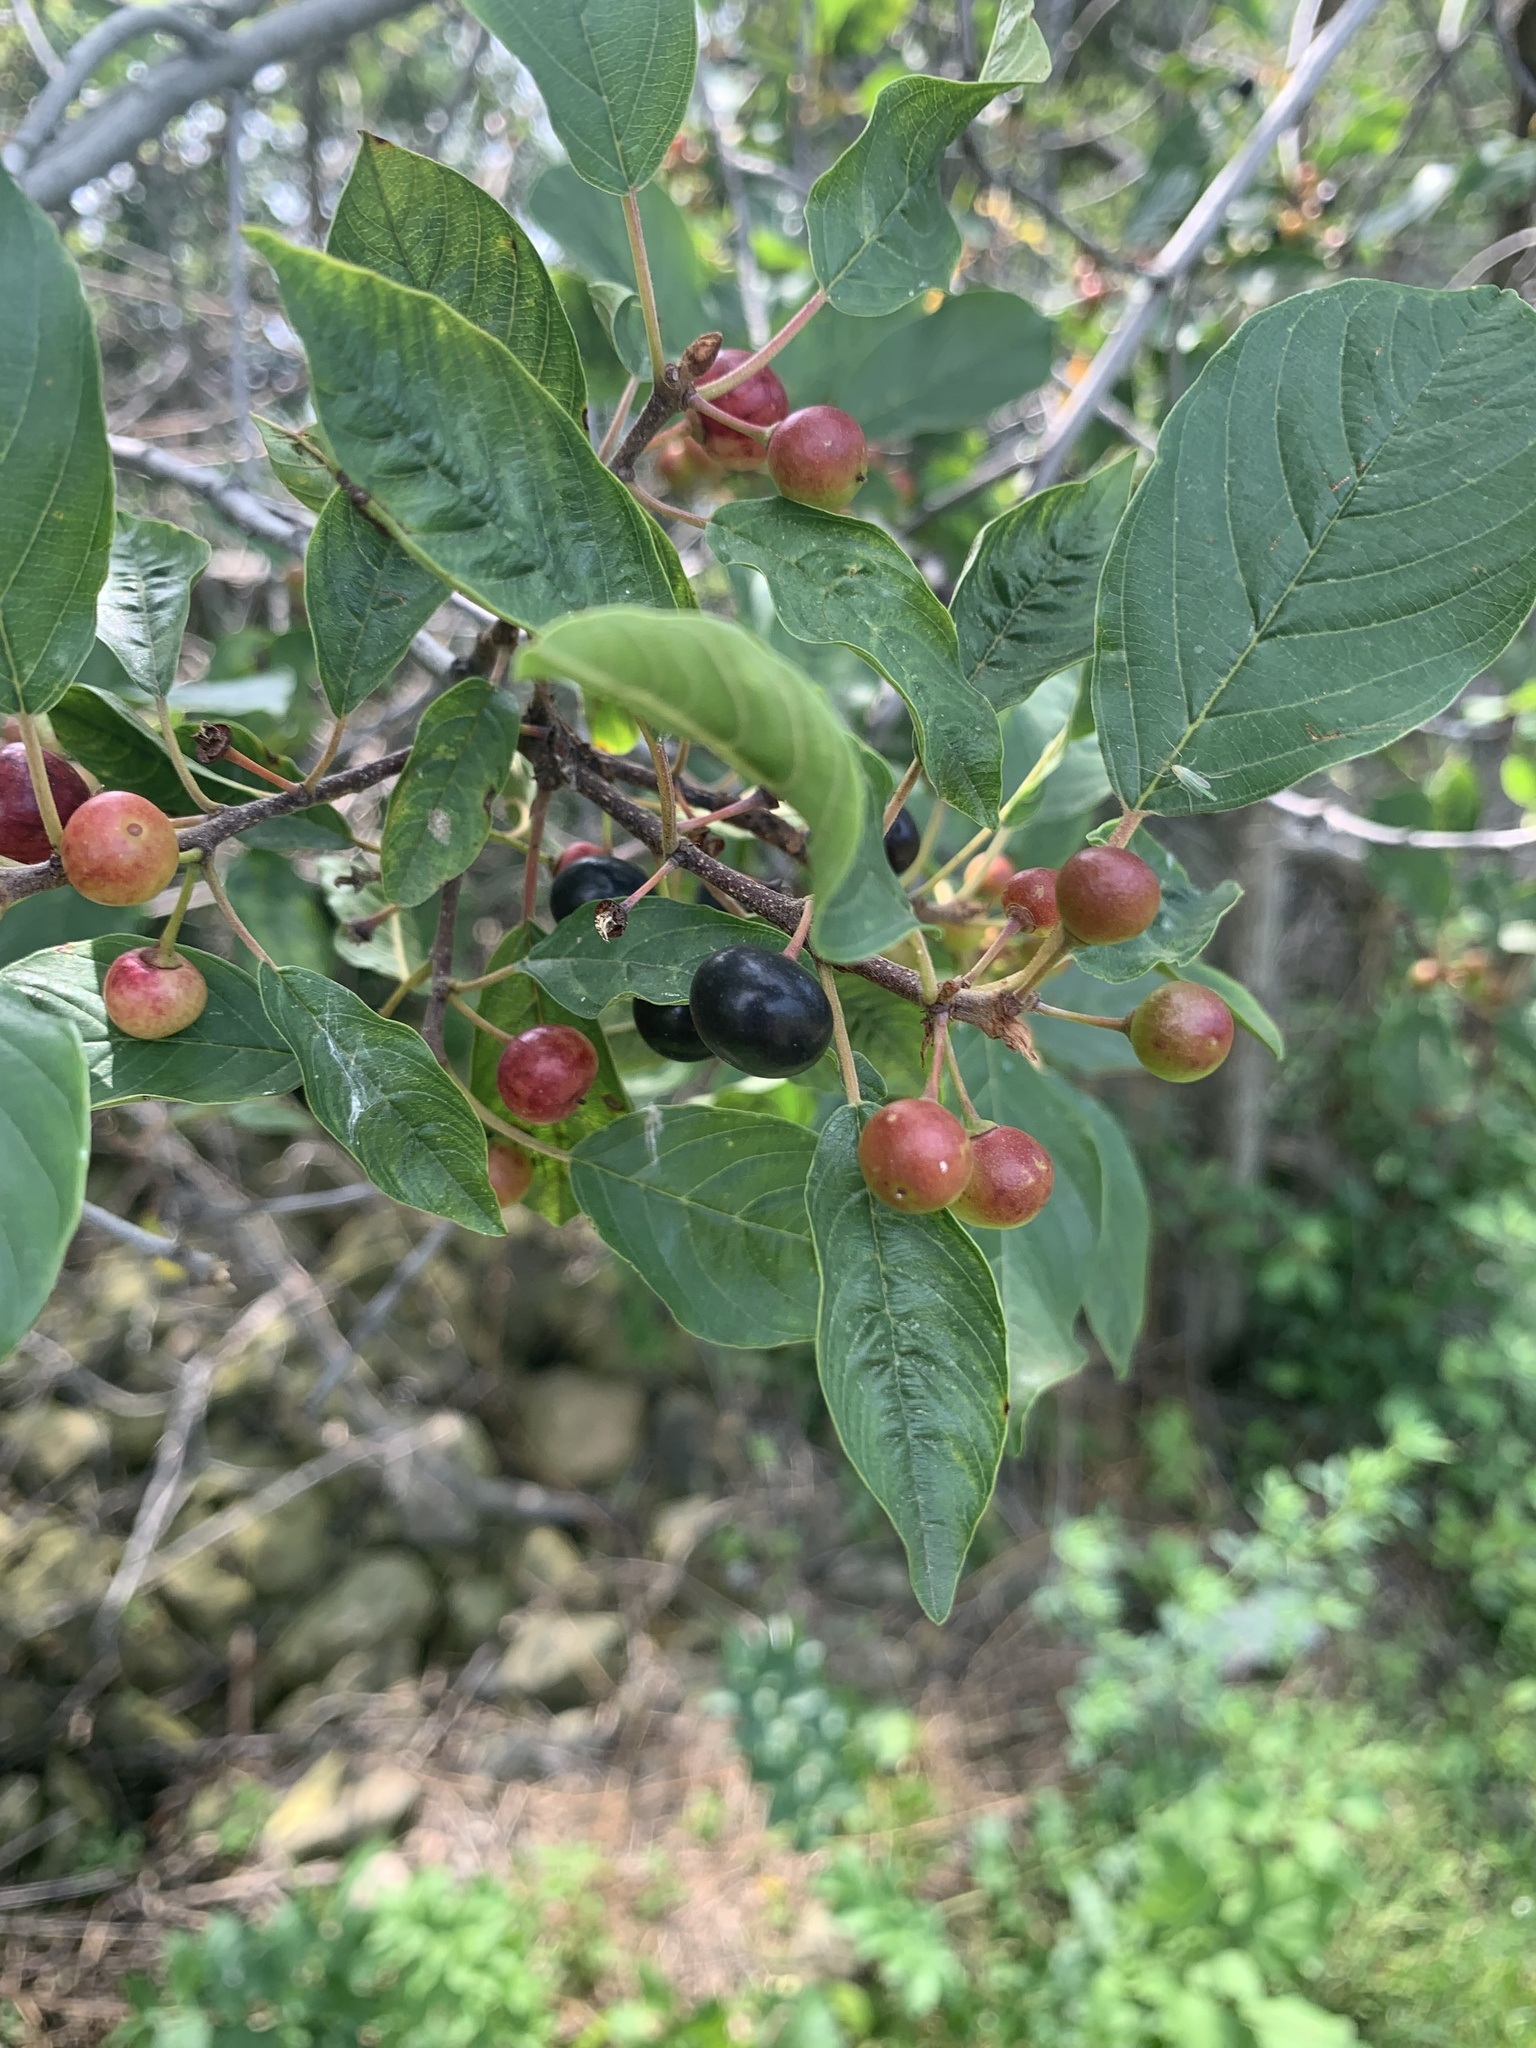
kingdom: Plantae
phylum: Tracheophyta
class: Magnoliopsida
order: Rosales
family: Rhamnaceae
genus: Frangula
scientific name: Frangula alnus
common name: Alder buckthorn
